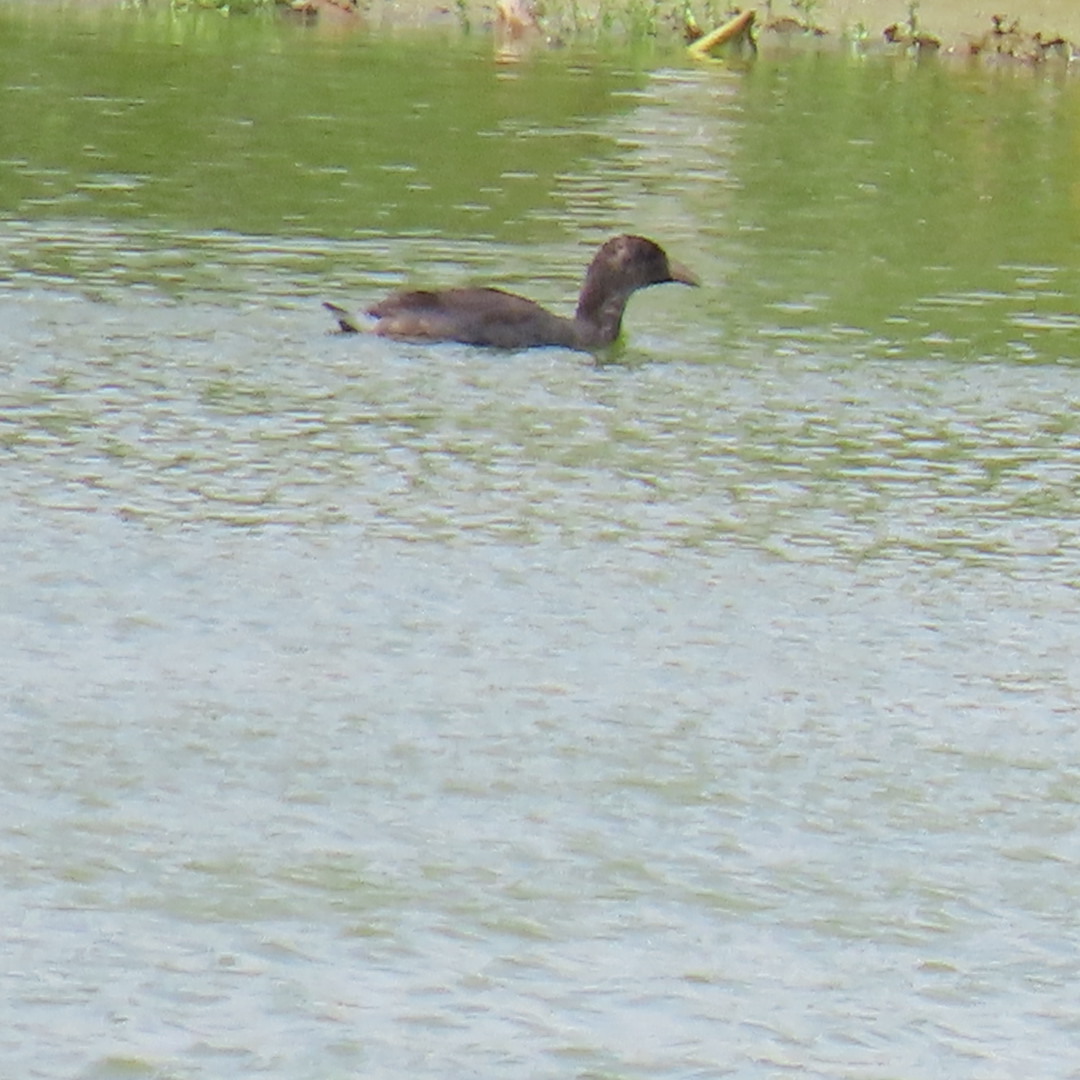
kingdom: Animalia
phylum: Chordata
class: Aves
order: Gruiformes
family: Rallidae
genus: Gallinula
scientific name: Gallinula chloropus
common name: Common moorhen
